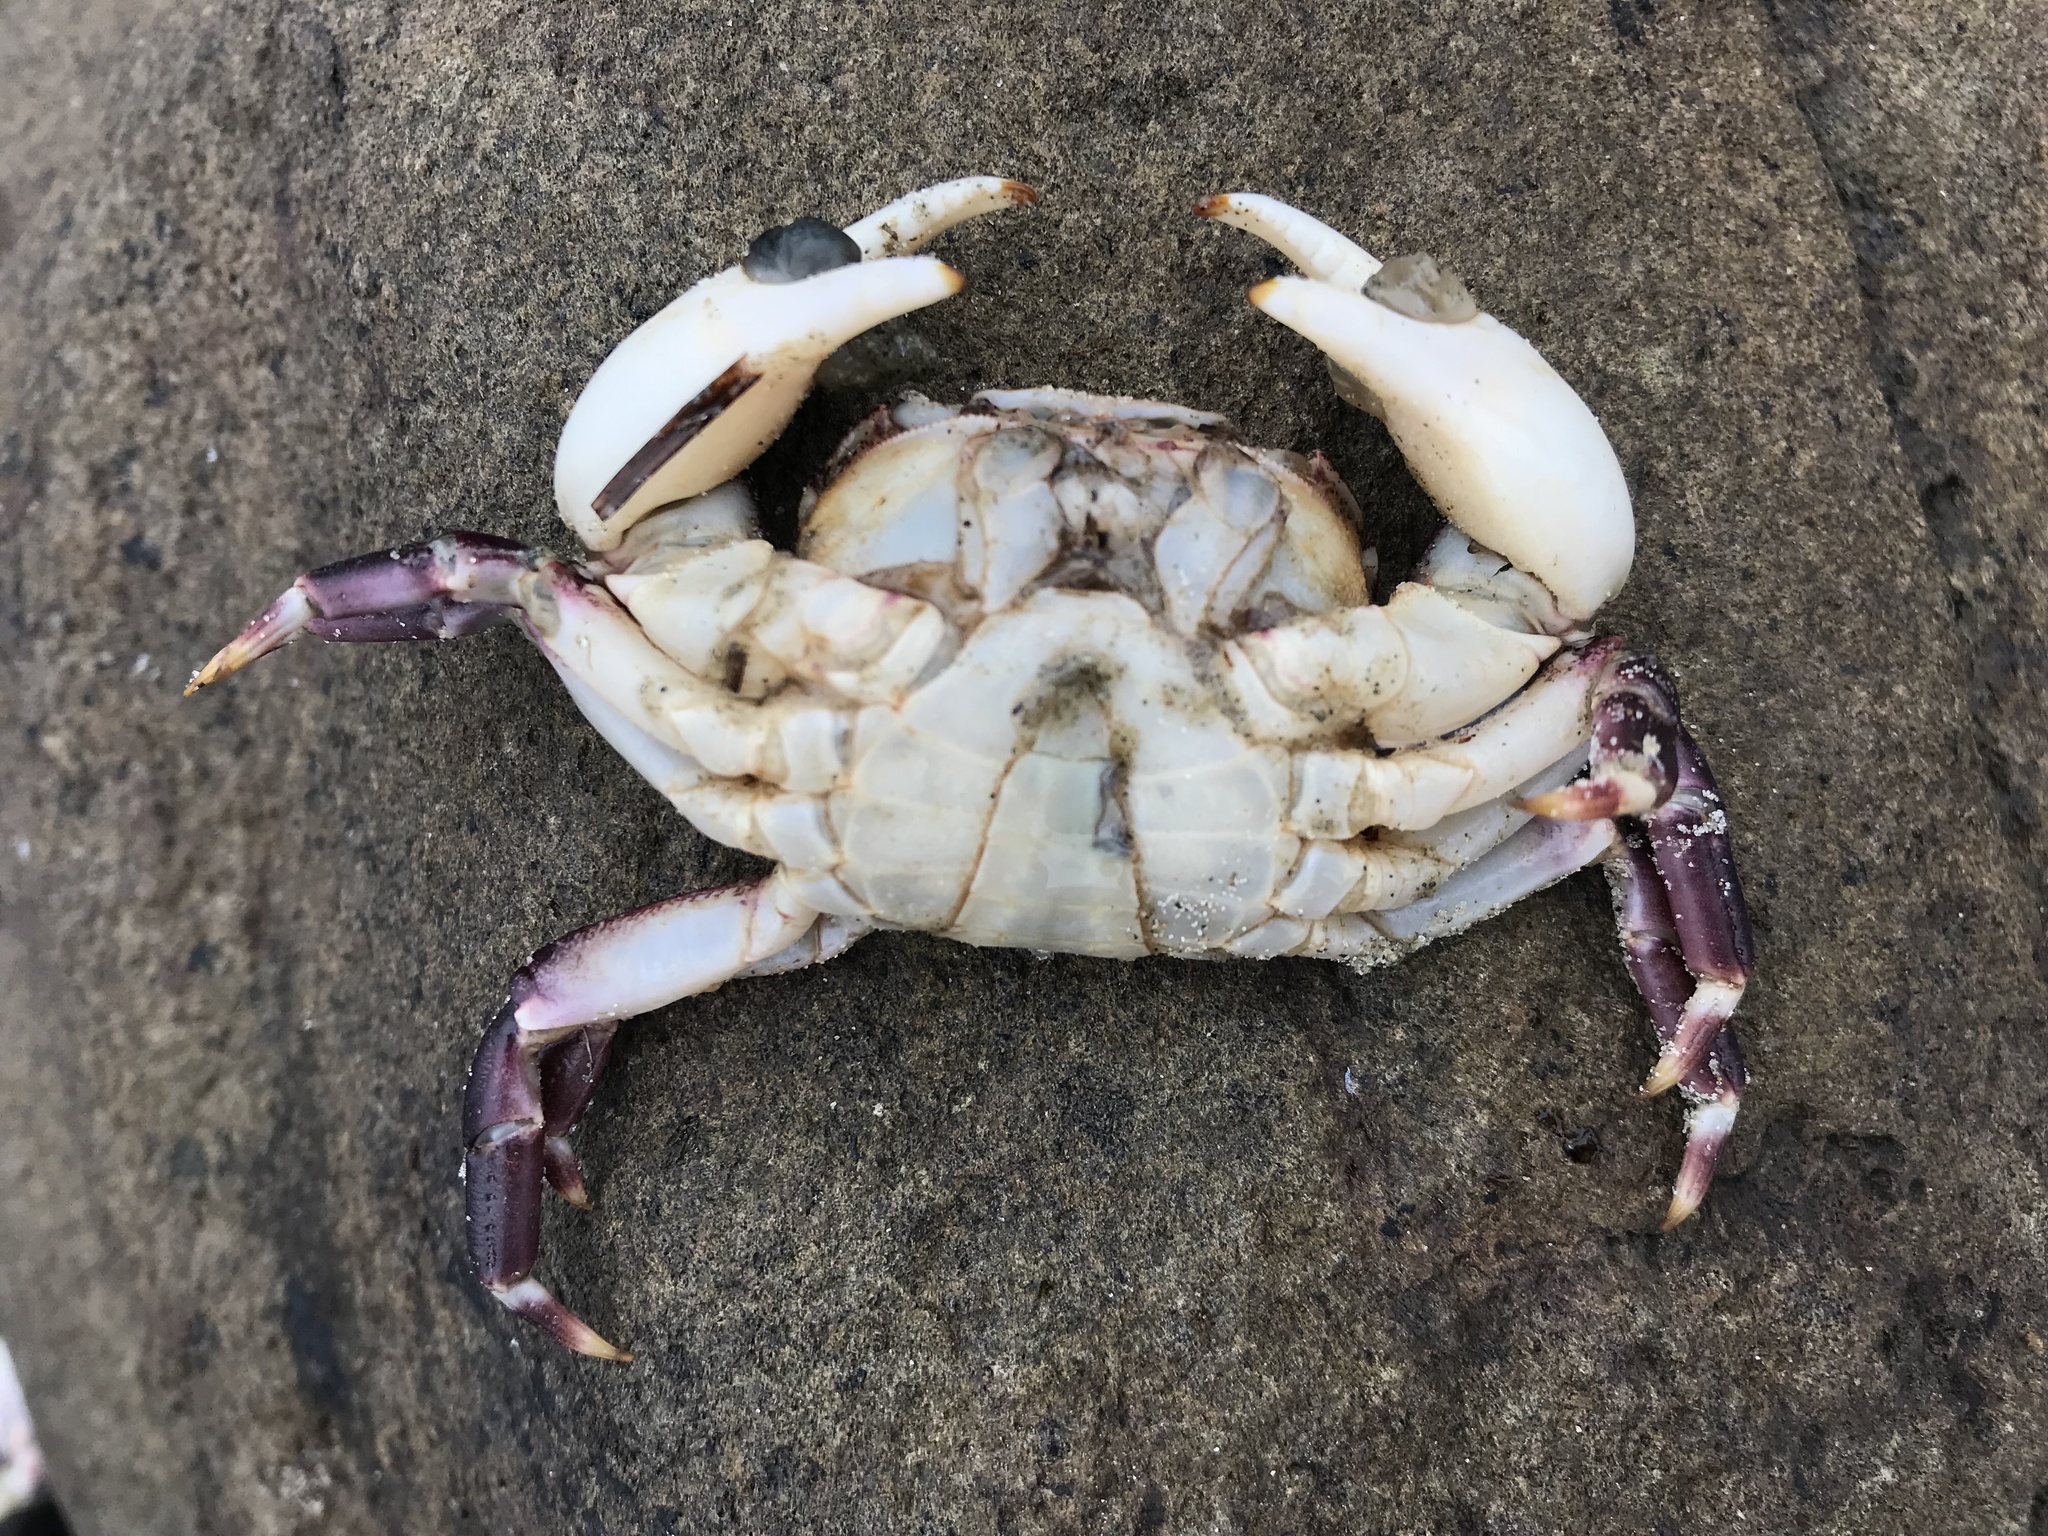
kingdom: Animalia
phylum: Arthropoda
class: Malacostraca
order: Decapoda
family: Varunidae
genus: Hemigrapsus
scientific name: Hemigrapsus sexdentatus
